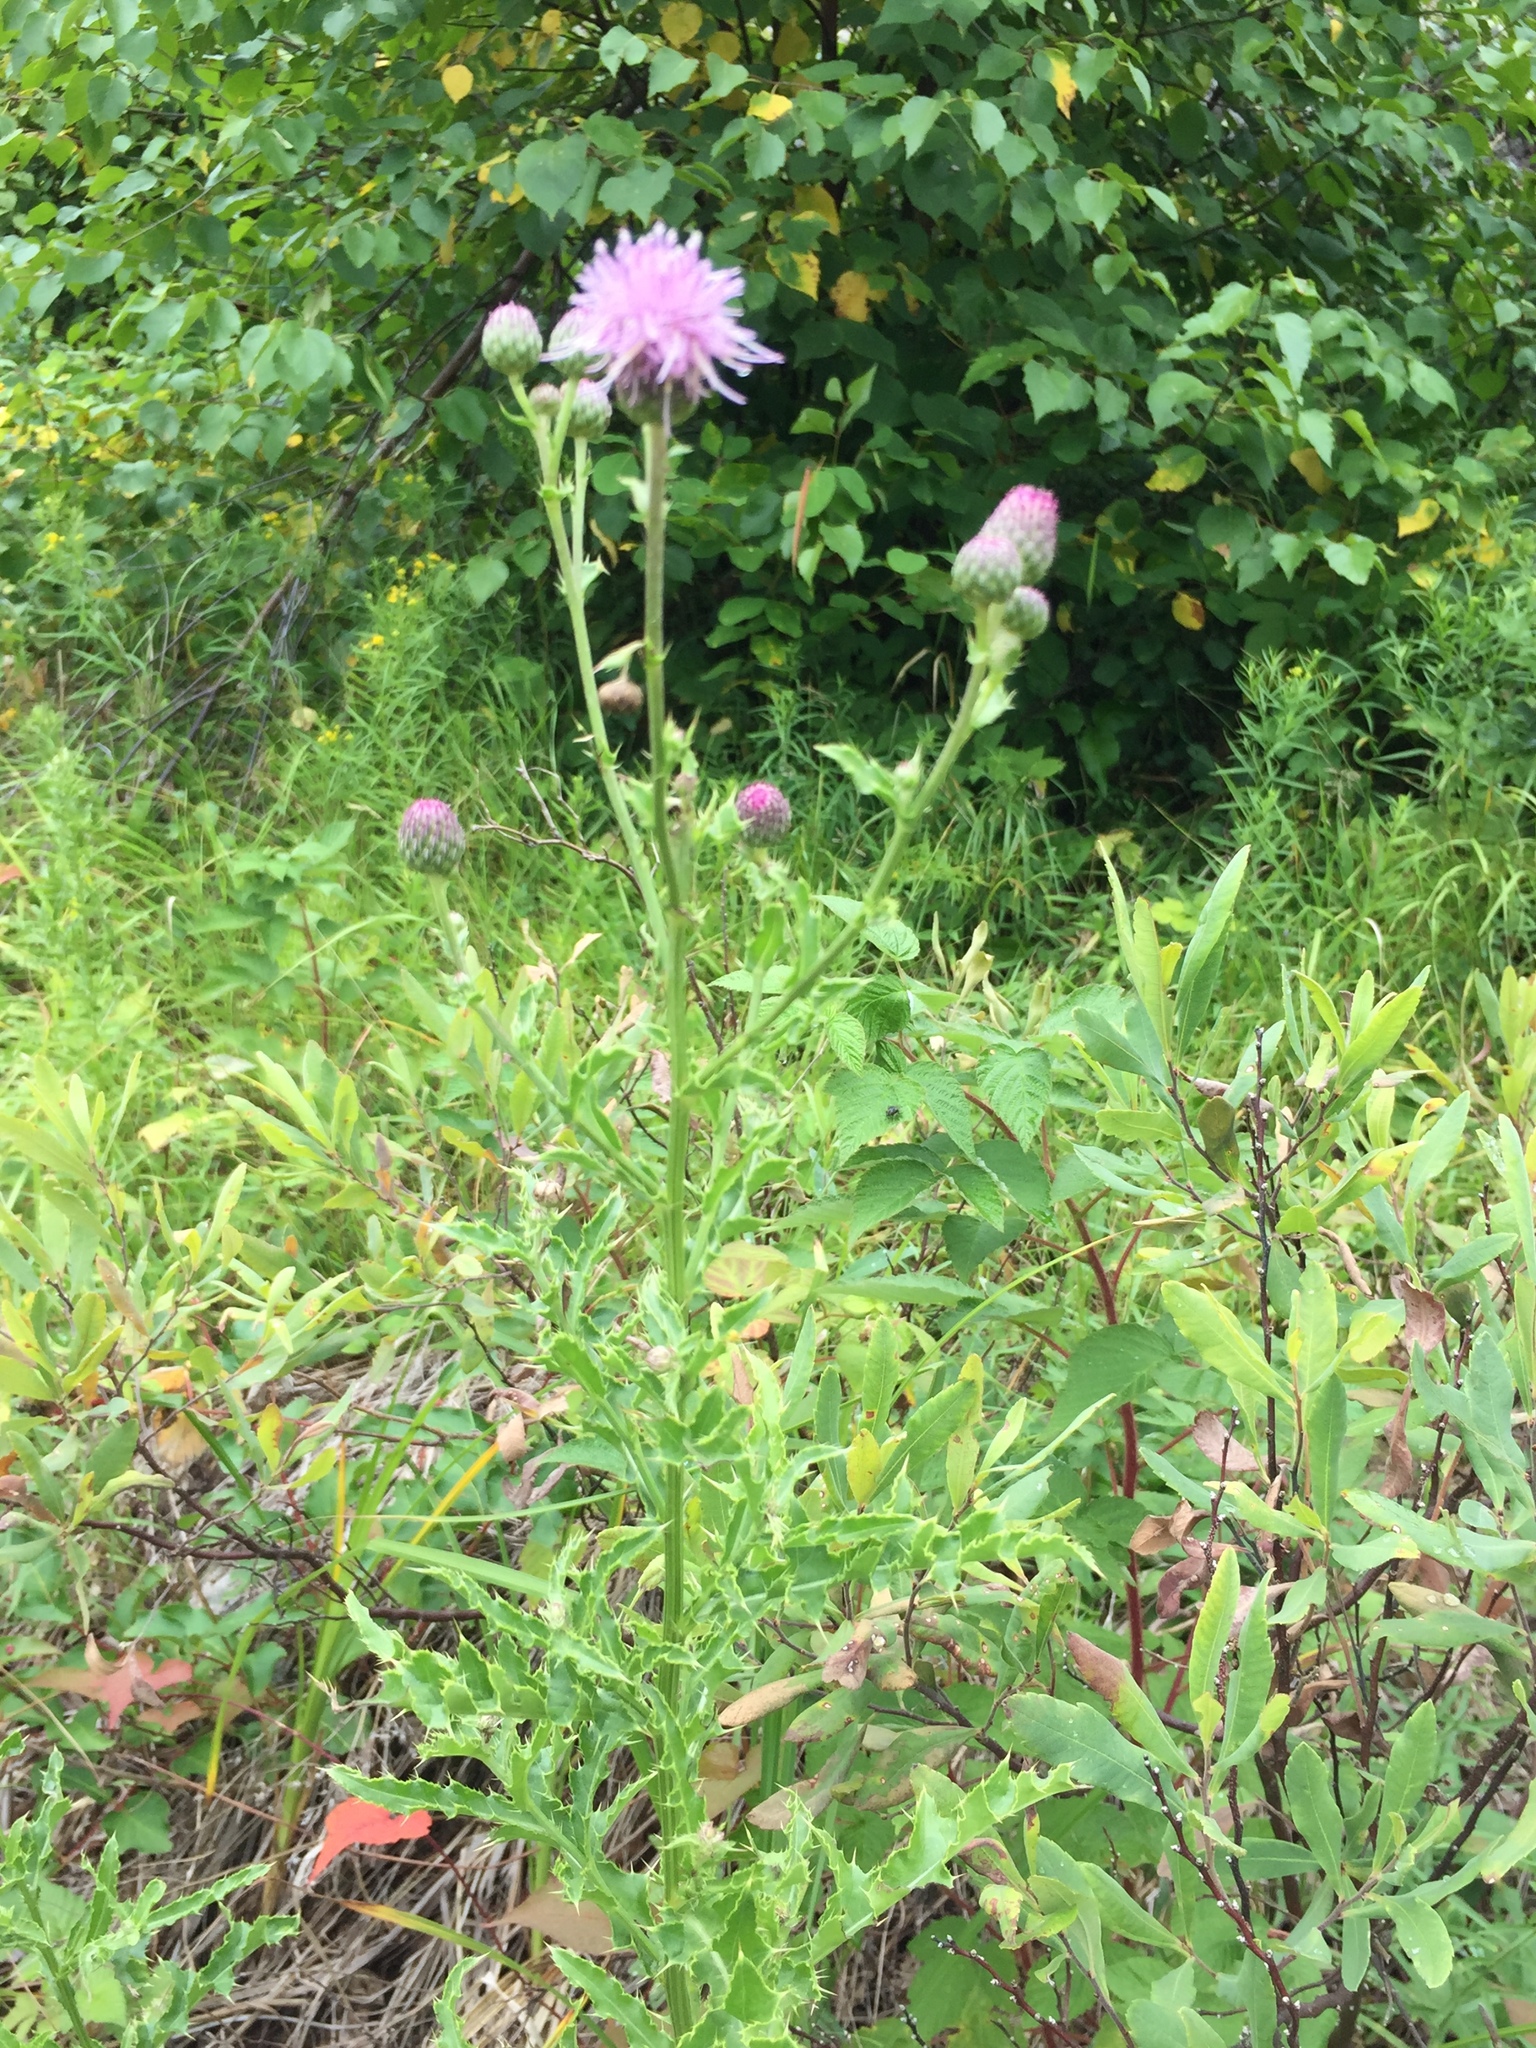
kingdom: Plantae
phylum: Tracheophyta
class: Magnoliopsida
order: Asterales
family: Asteraceae
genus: Cirsium
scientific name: Cirsium arvense
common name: Creeping thistle
